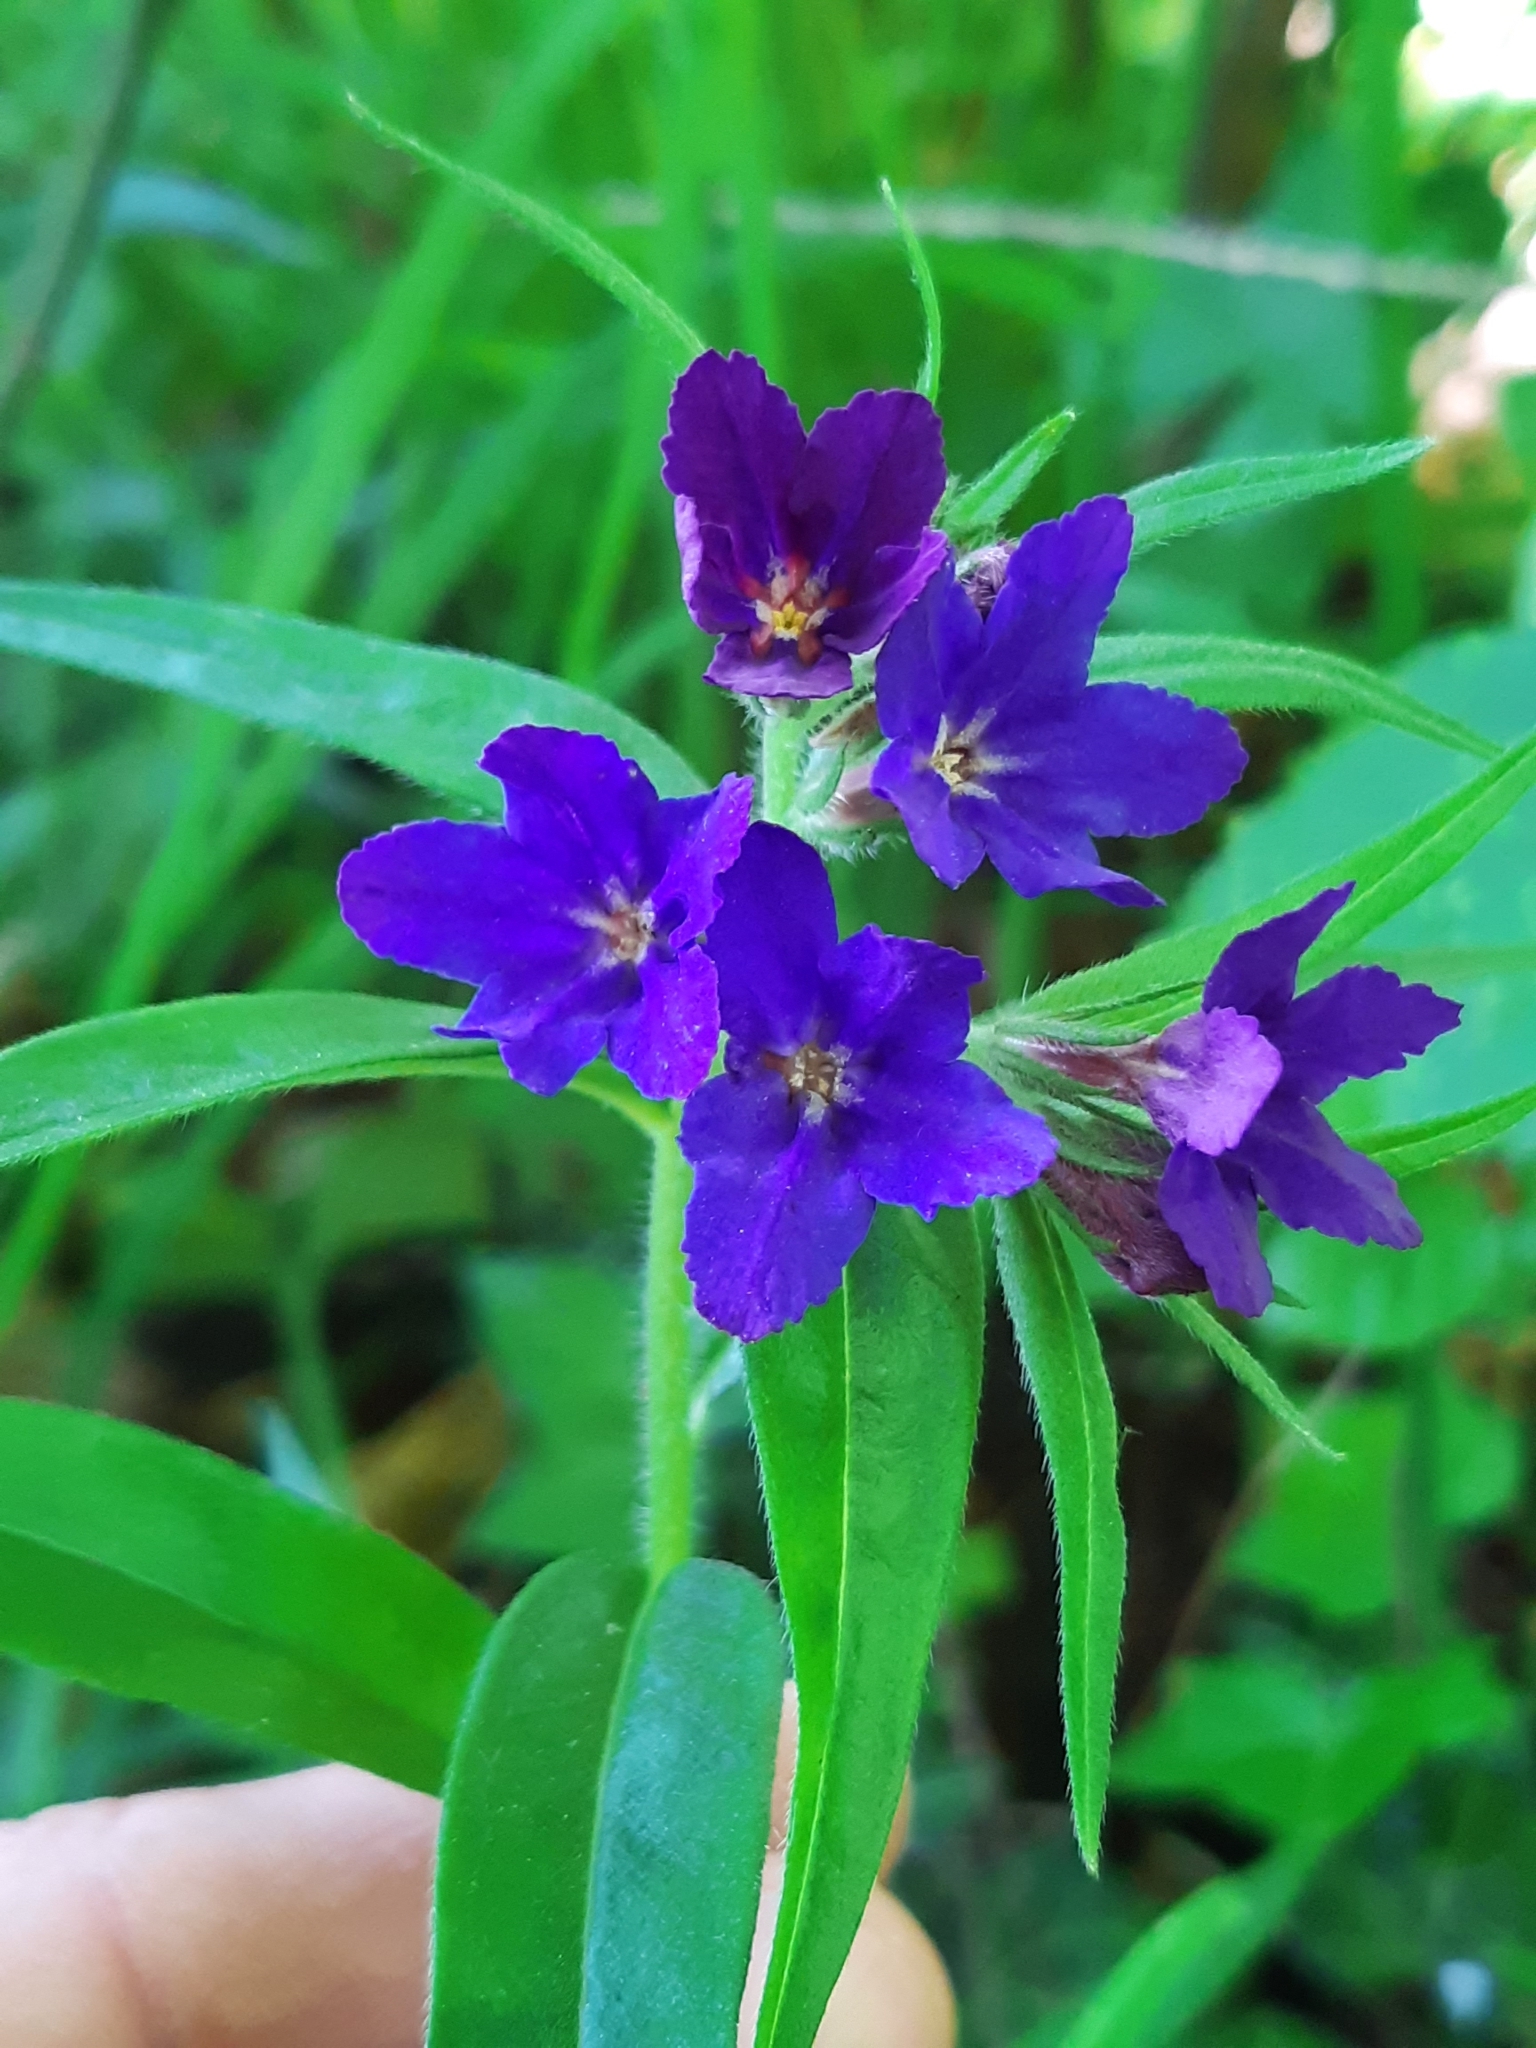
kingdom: Plantae
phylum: Tracheophyta
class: Magnoliopsida
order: Boraginales
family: Boraginaceae
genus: Aegonychon
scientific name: Aegonychon purpurocaeruleum
